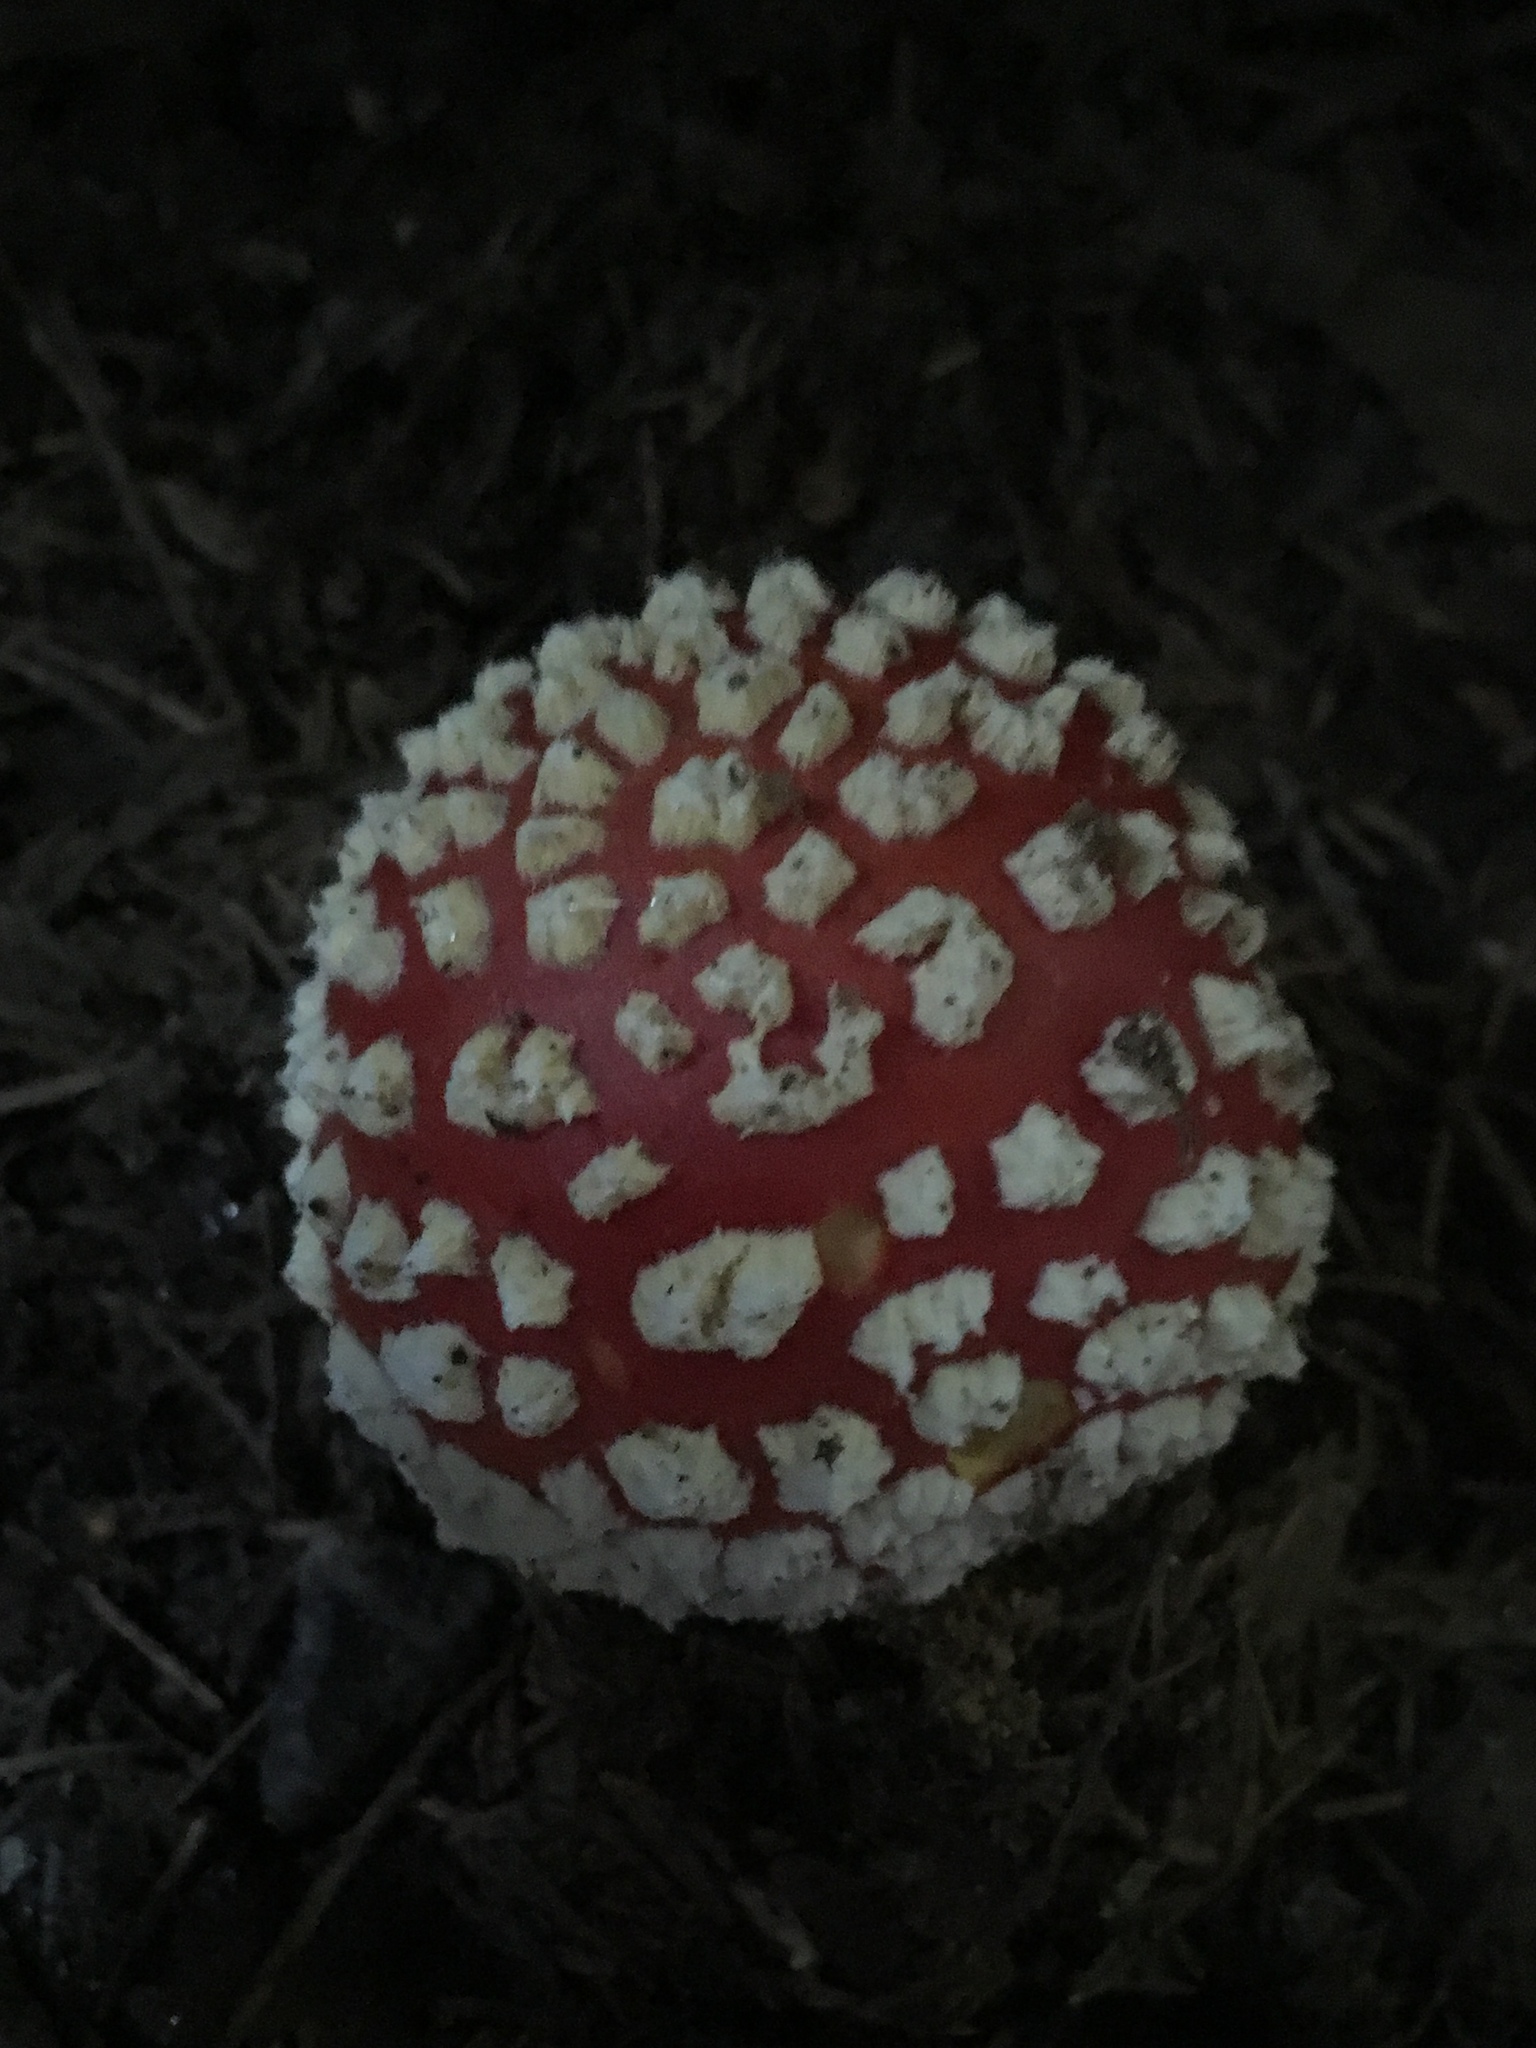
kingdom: Fungi
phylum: Basidiomycota
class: Agaricomycetes
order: Agaricales
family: Amanitaceae
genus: Amanita
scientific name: Amanita muscaria
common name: Fly agaric
